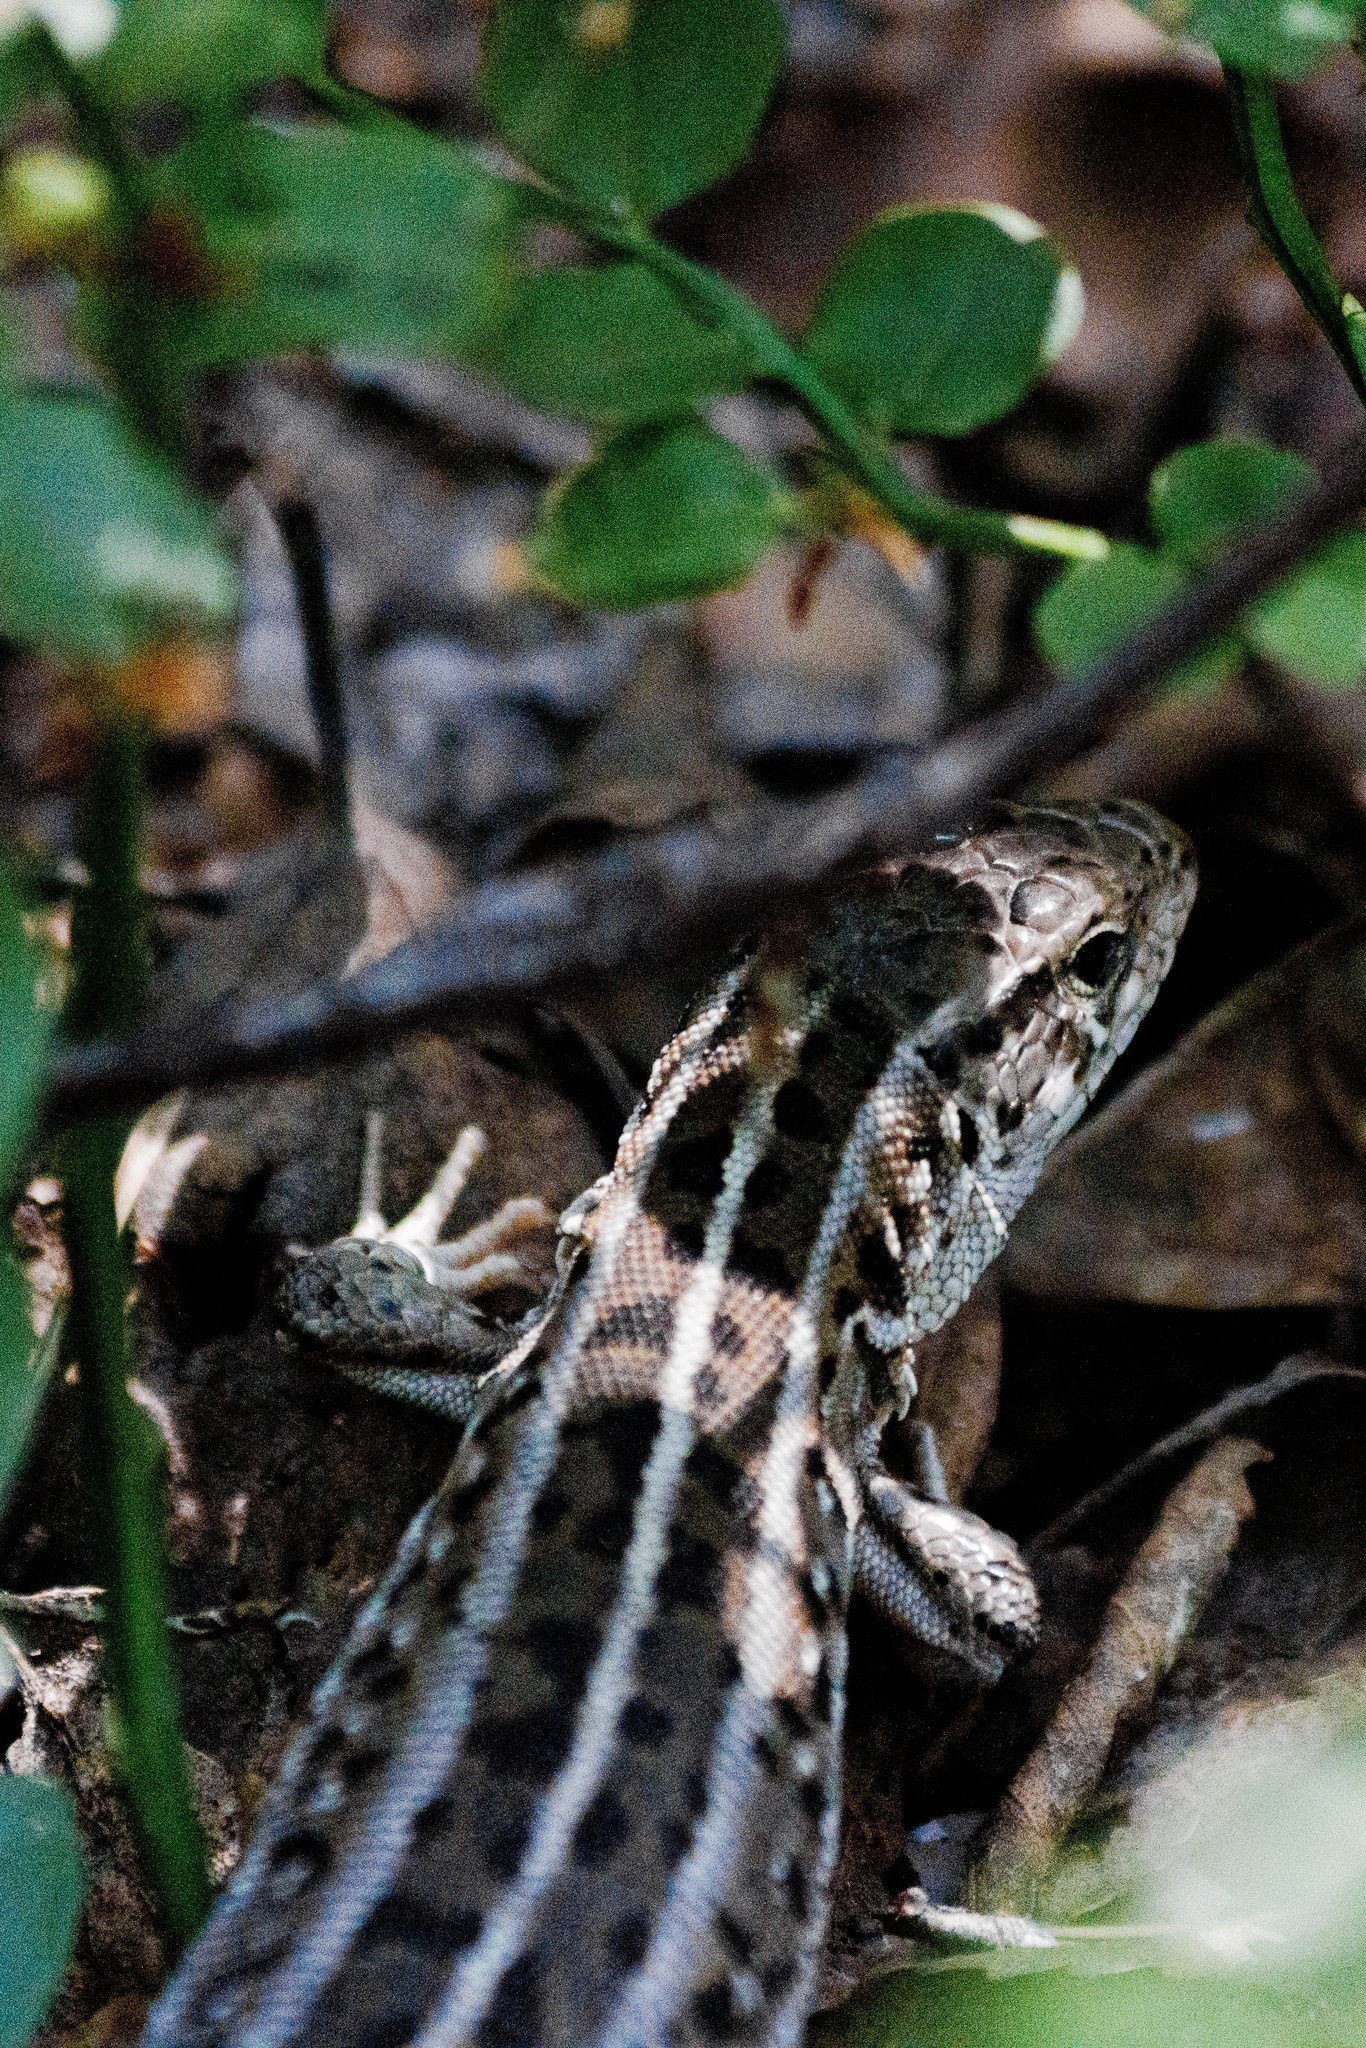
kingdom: Animalia
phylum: Chordata
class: Squamata
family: Lacertidae
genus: Lacerta
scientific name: Lacerta agilis
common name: Sand lizard
